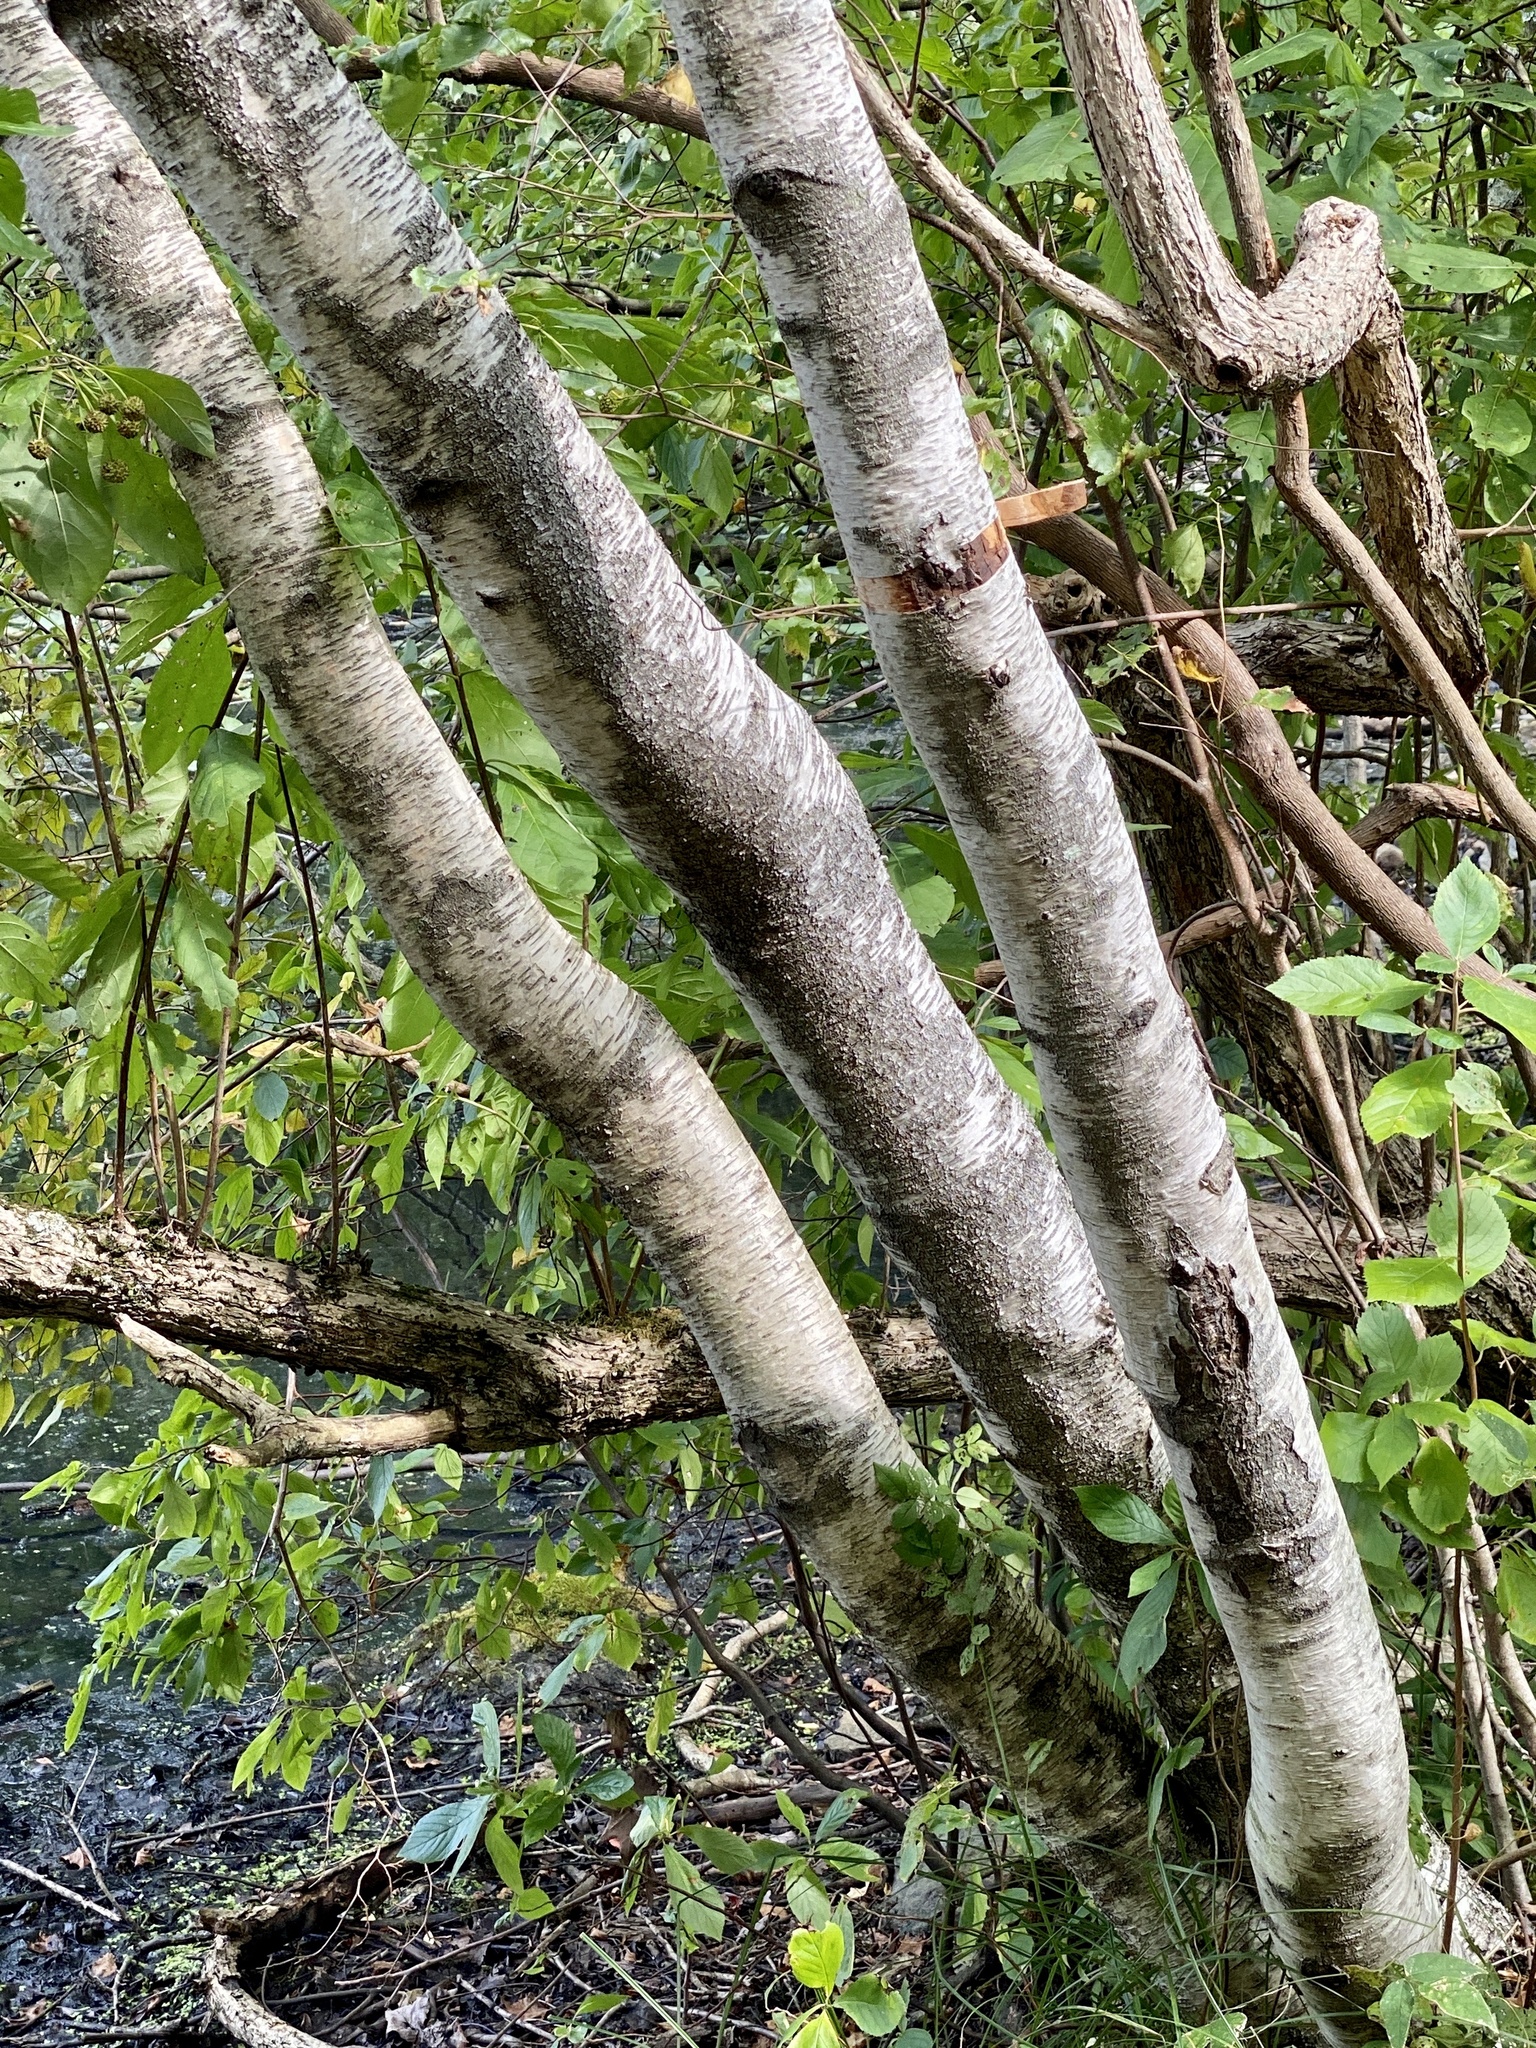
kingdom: Plantae
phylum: Tracheophyta
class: Magnoliopsida
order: Fagales
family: Betulaceae
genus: Betula
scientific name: Betula populifolia
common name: Fire birch
